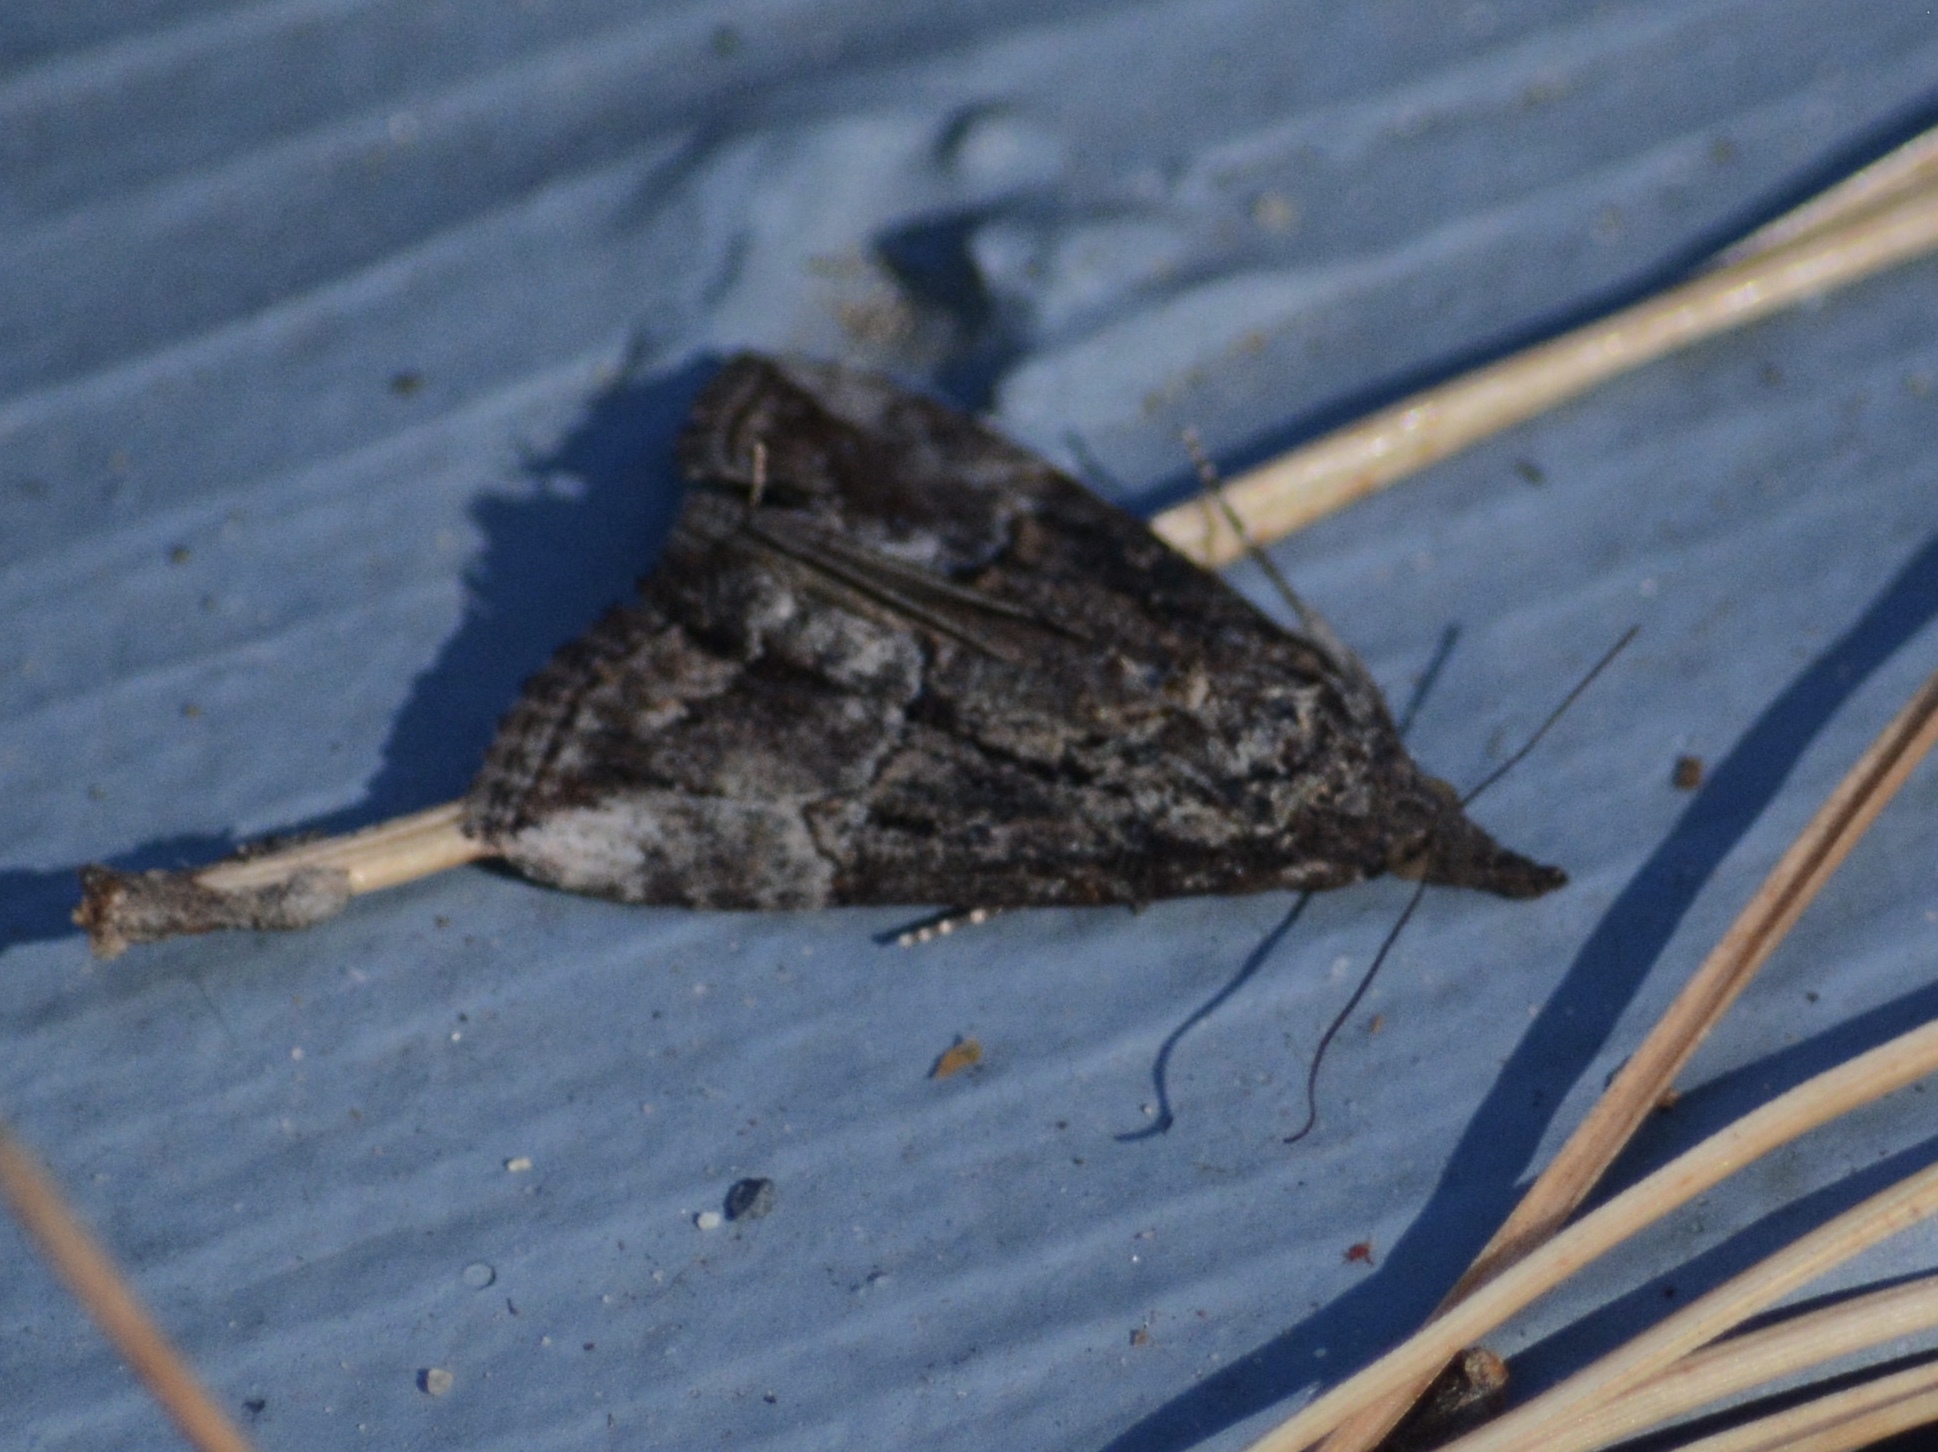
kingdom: Animalia
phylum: Arthropoda
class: Insecta
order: Lepidoptera
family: Erebidae
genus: Hypena
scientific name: Hypena scabra
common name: Green cloverworm
